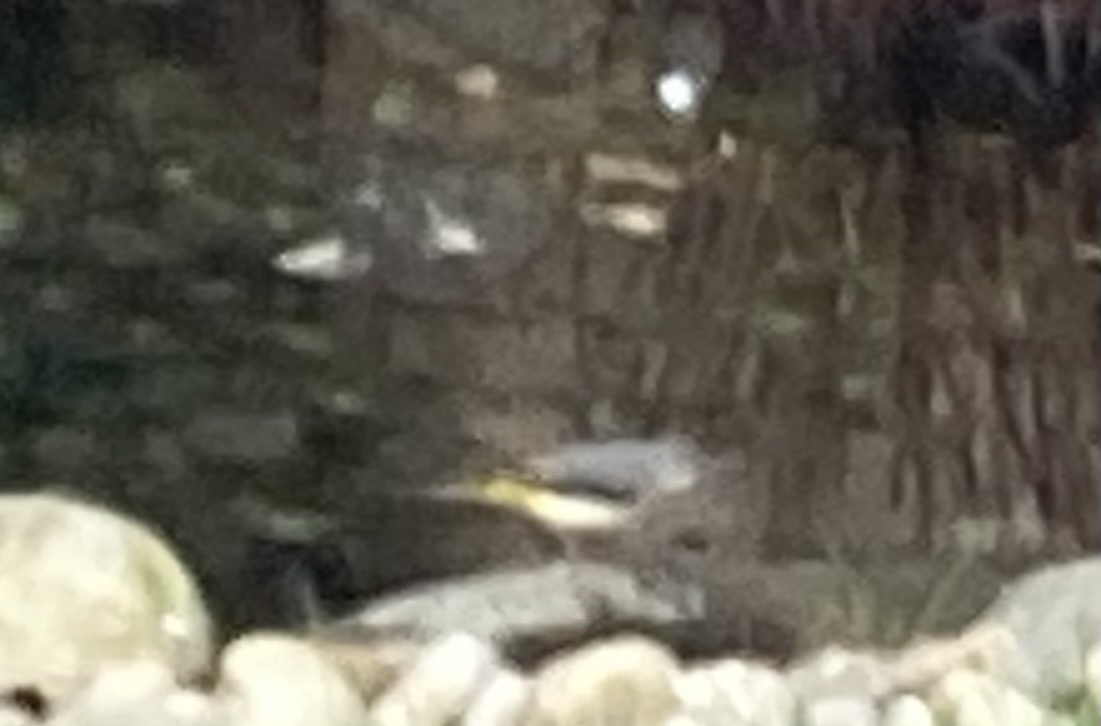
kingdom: Animalia
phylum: Chordata
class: Aves
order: Passeriformes
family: Motacillidae
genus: Motacilla
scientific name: Motacilla cinerea
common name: Grey wagtail
